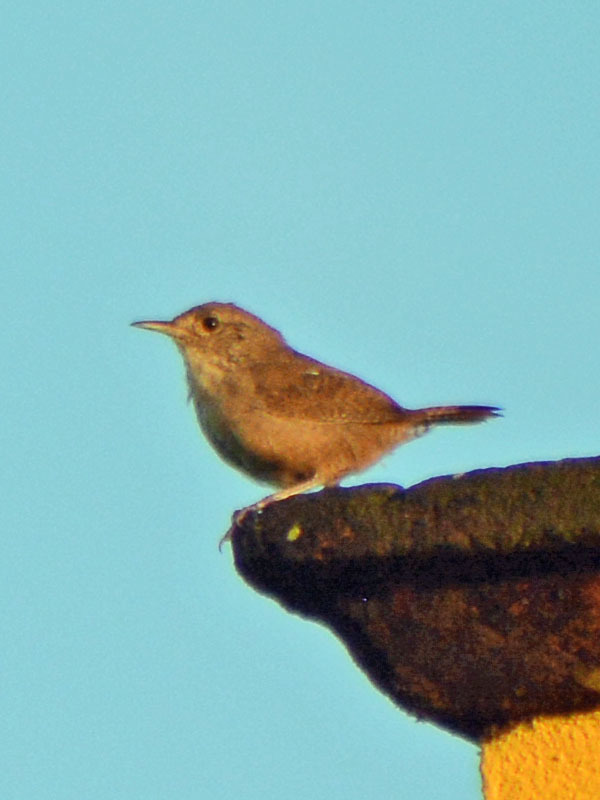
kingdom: Animalia
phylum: Chordata
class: Aves
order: Passeriformes
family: Troglodytidae
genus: Troglodytes
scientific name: Troglodytes aedon
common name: House wren
